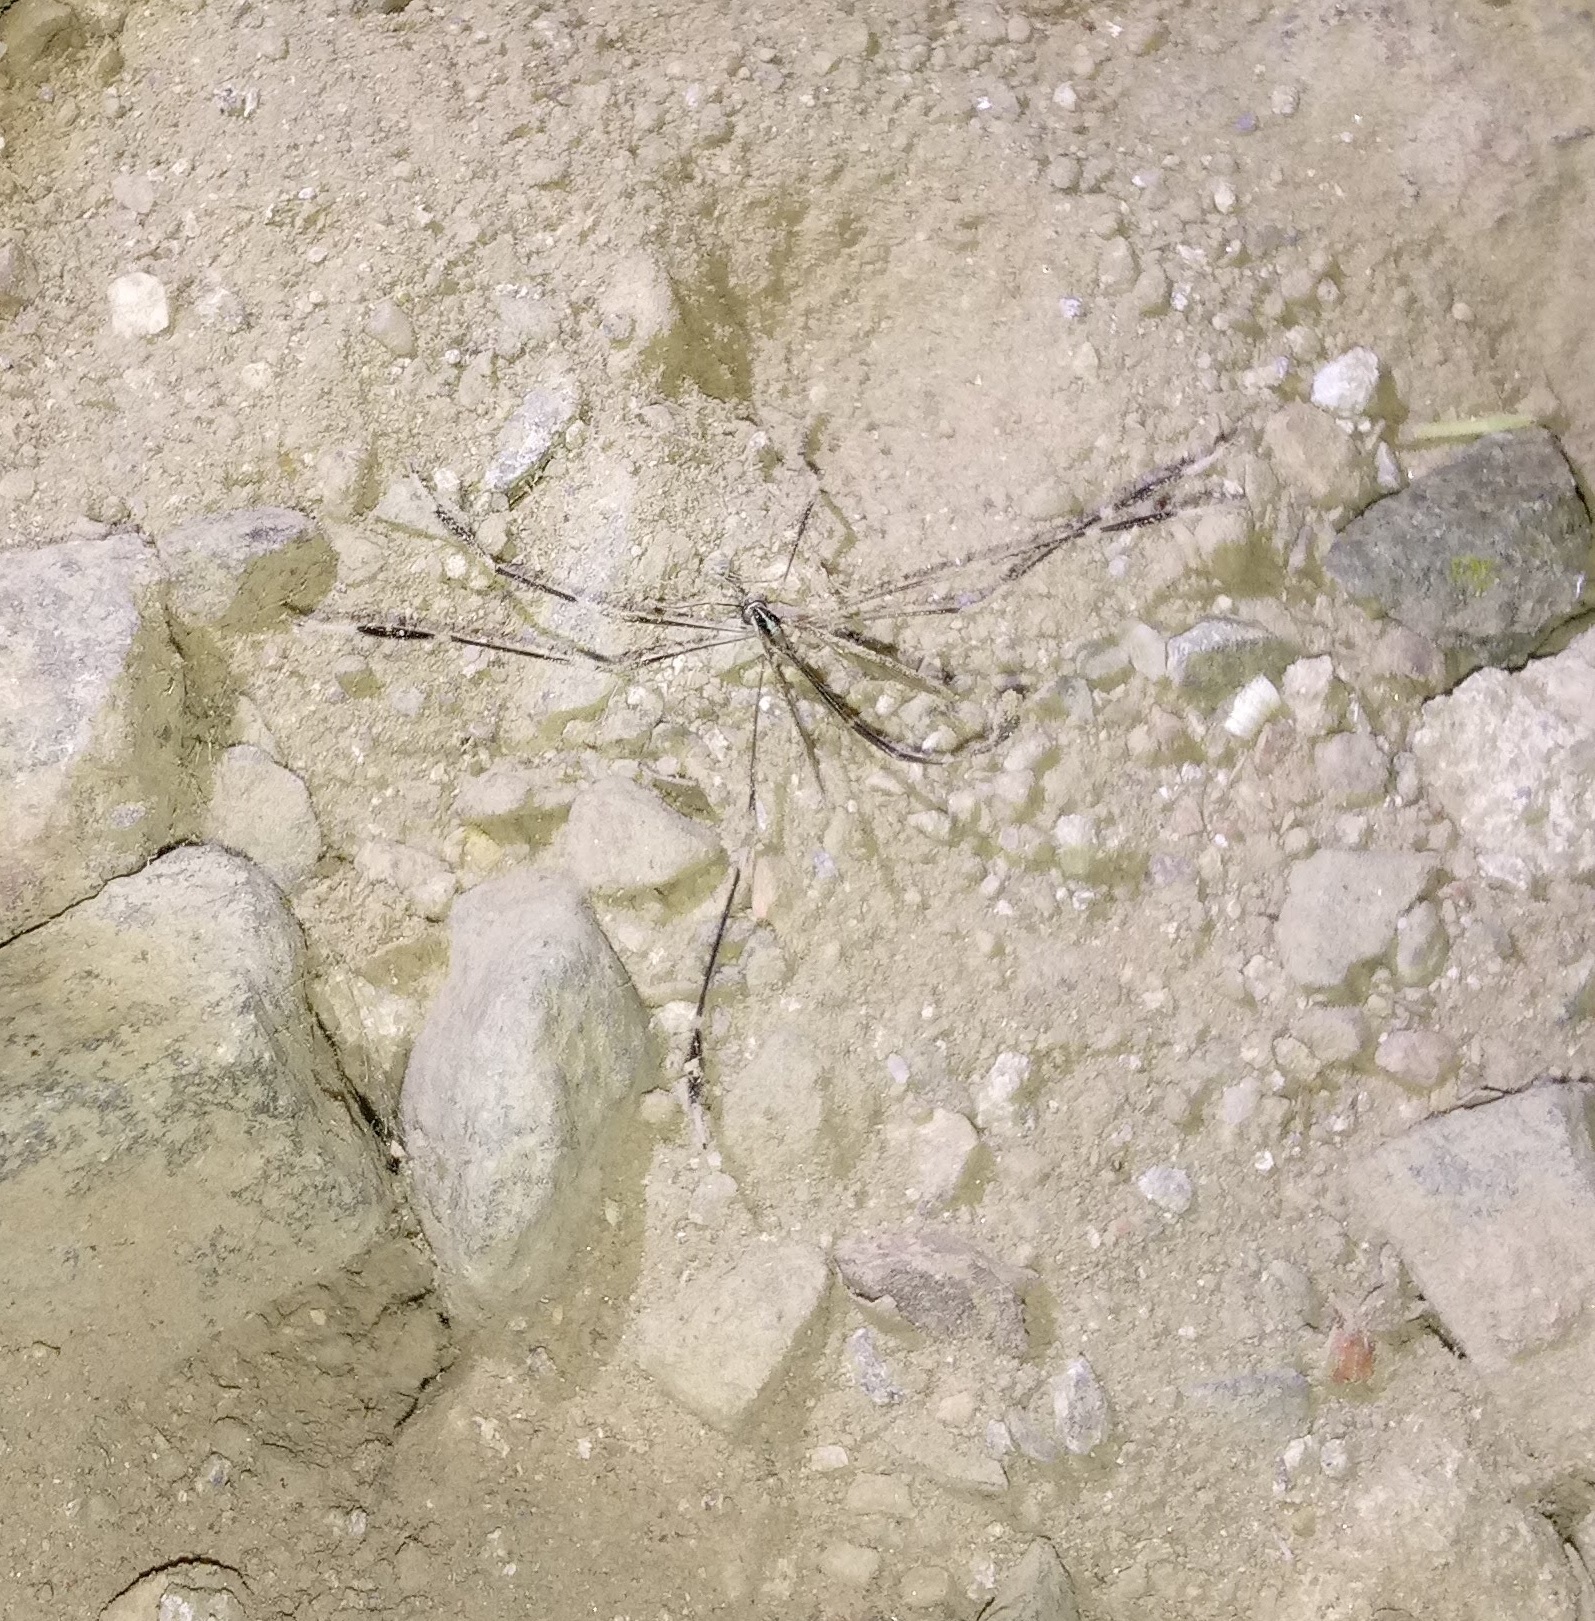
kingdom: Animalia
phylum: Arthropoda
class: Insecta
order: Diptera
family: Ptychopteridae
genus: Bittacomorpha
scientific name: Bittacomorpha clavipes
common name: Eastern phantom crane fly
